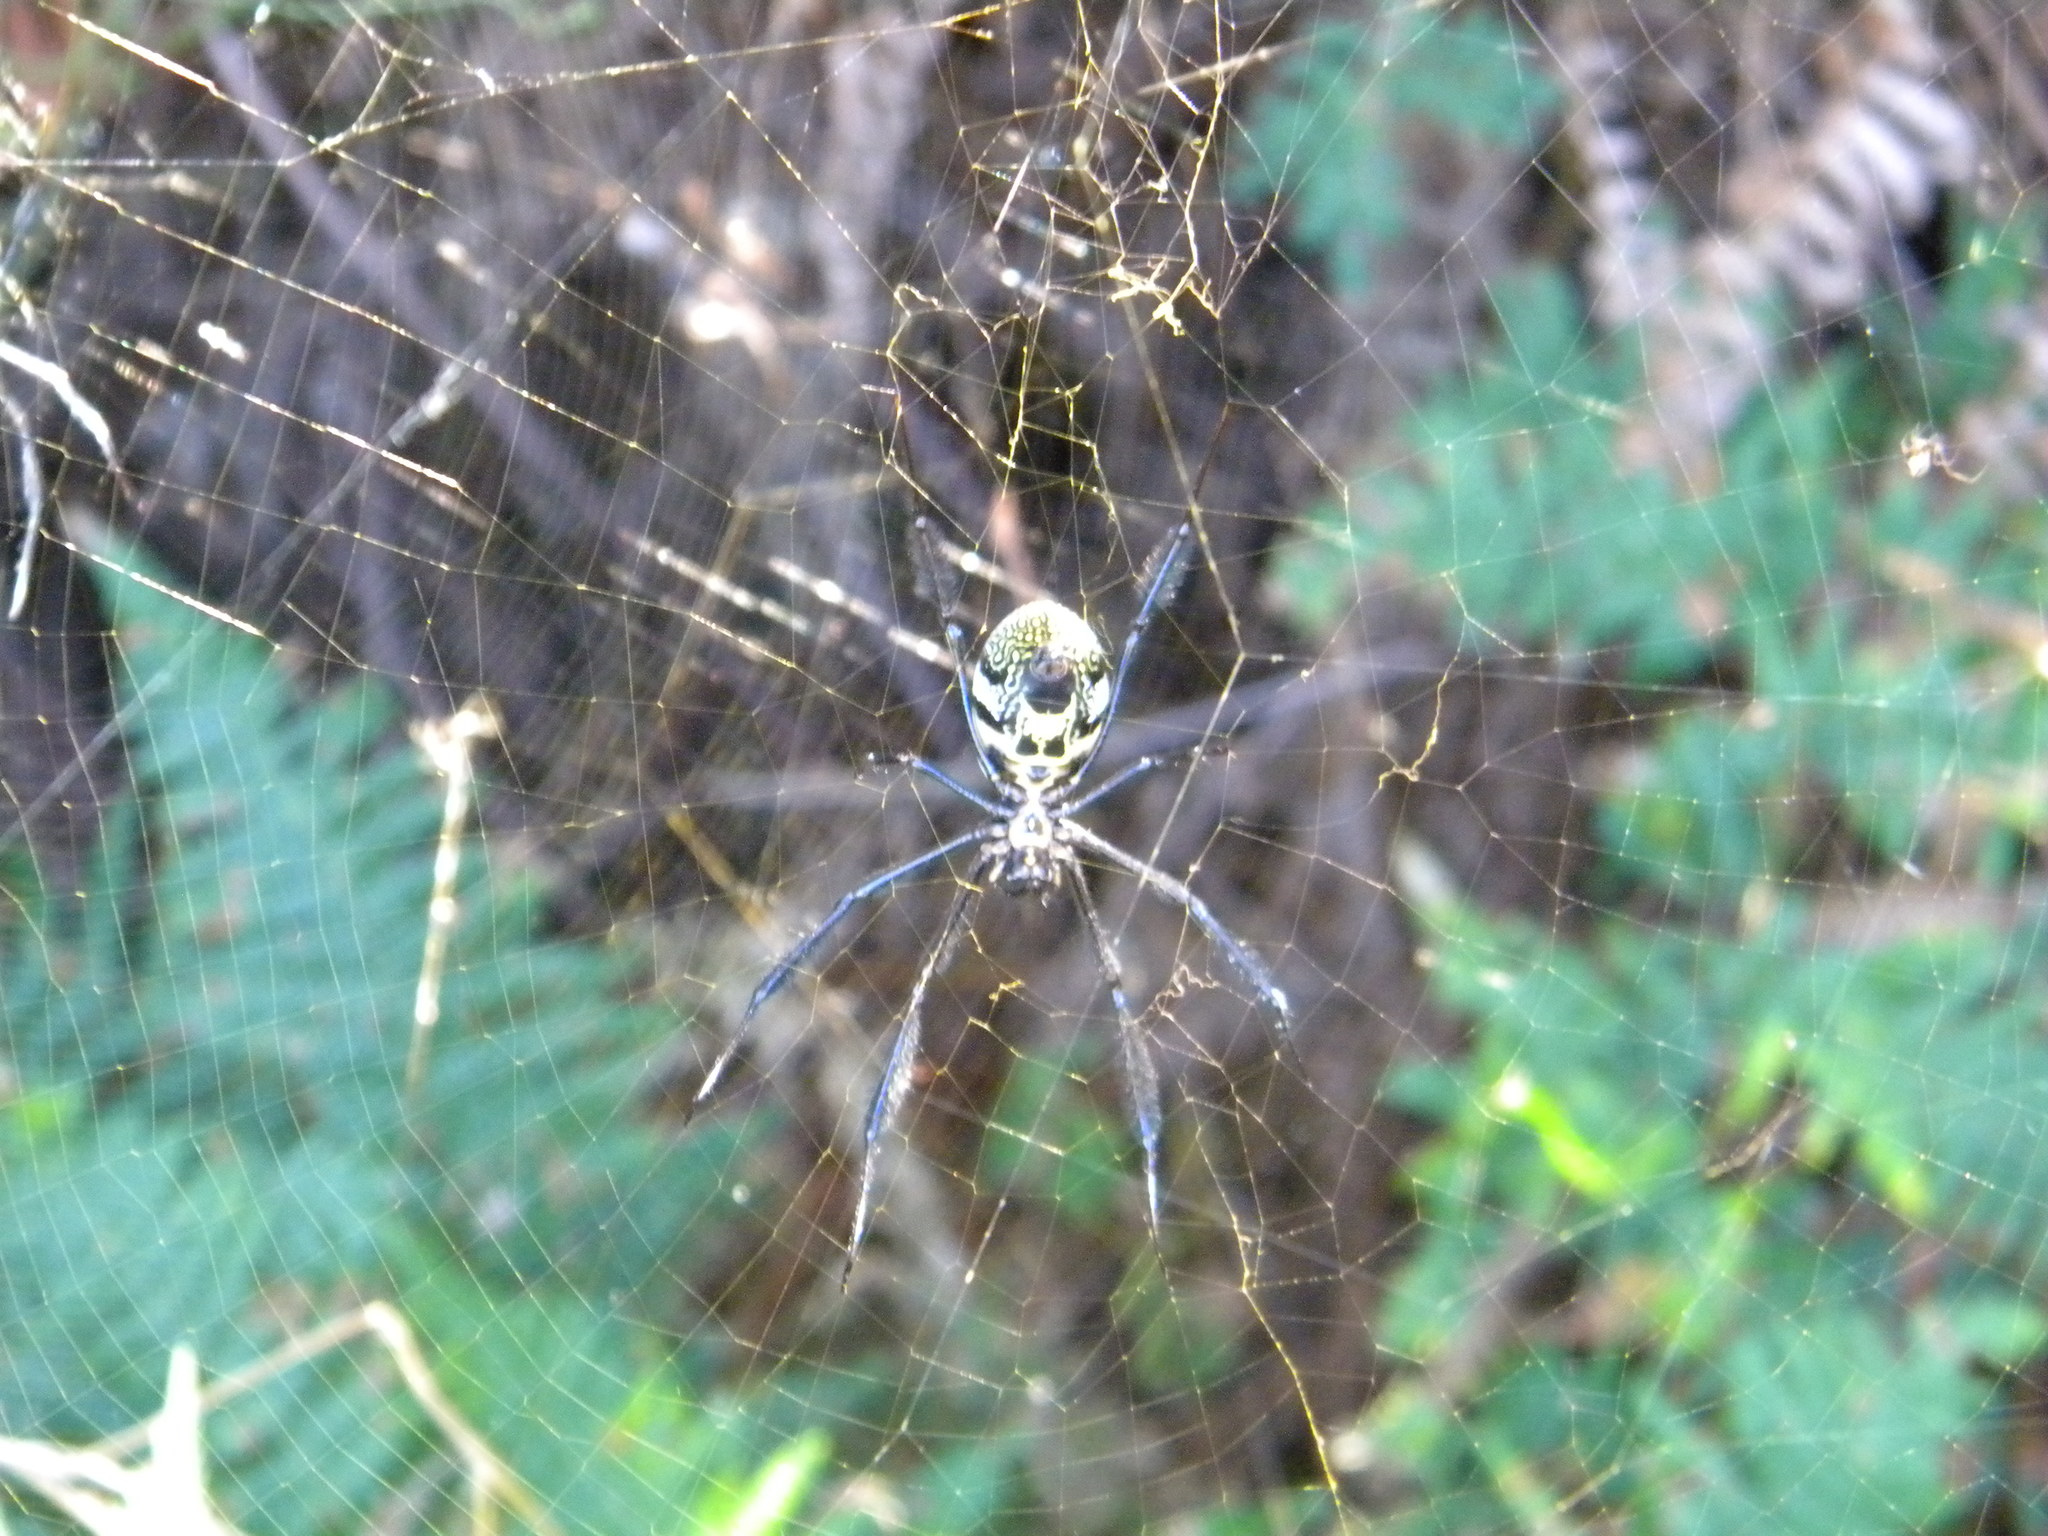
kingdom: Animalia
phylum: Arthropoda
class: Arachnida
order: Araneae
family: Araneidae
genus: Trichonephila
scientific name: Trichonephila fenestrata
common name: Hairy golden orb weaver
